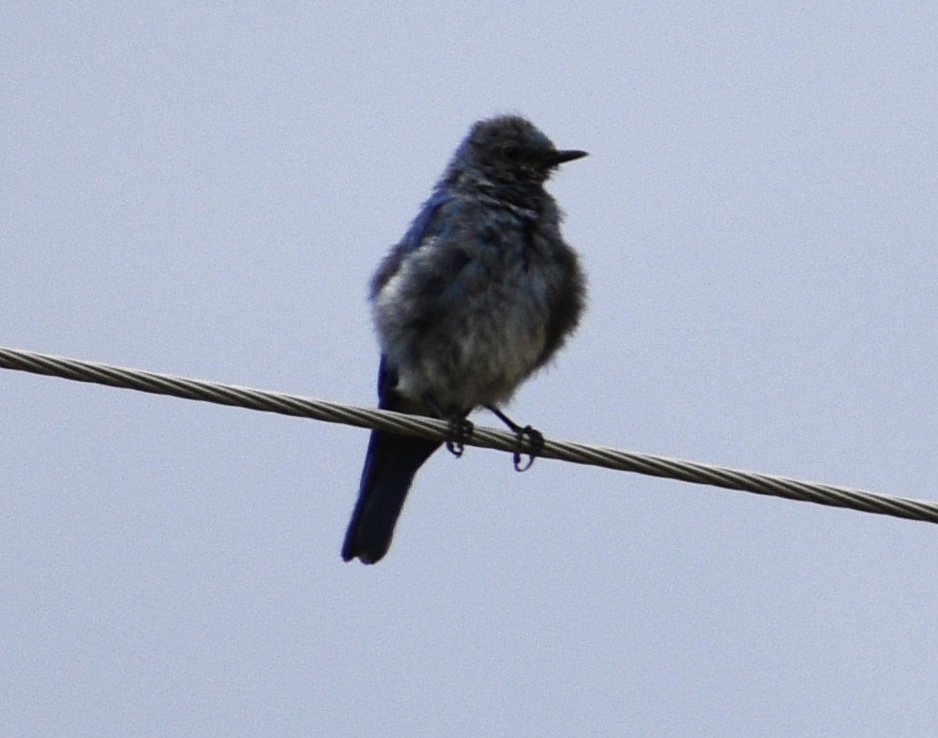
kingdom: Animalia
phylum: Chordata
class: Aves
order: Passeriformes
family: Turdidae
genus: Sialia
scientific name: Sialia currucoides
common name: Mountain bluebird
